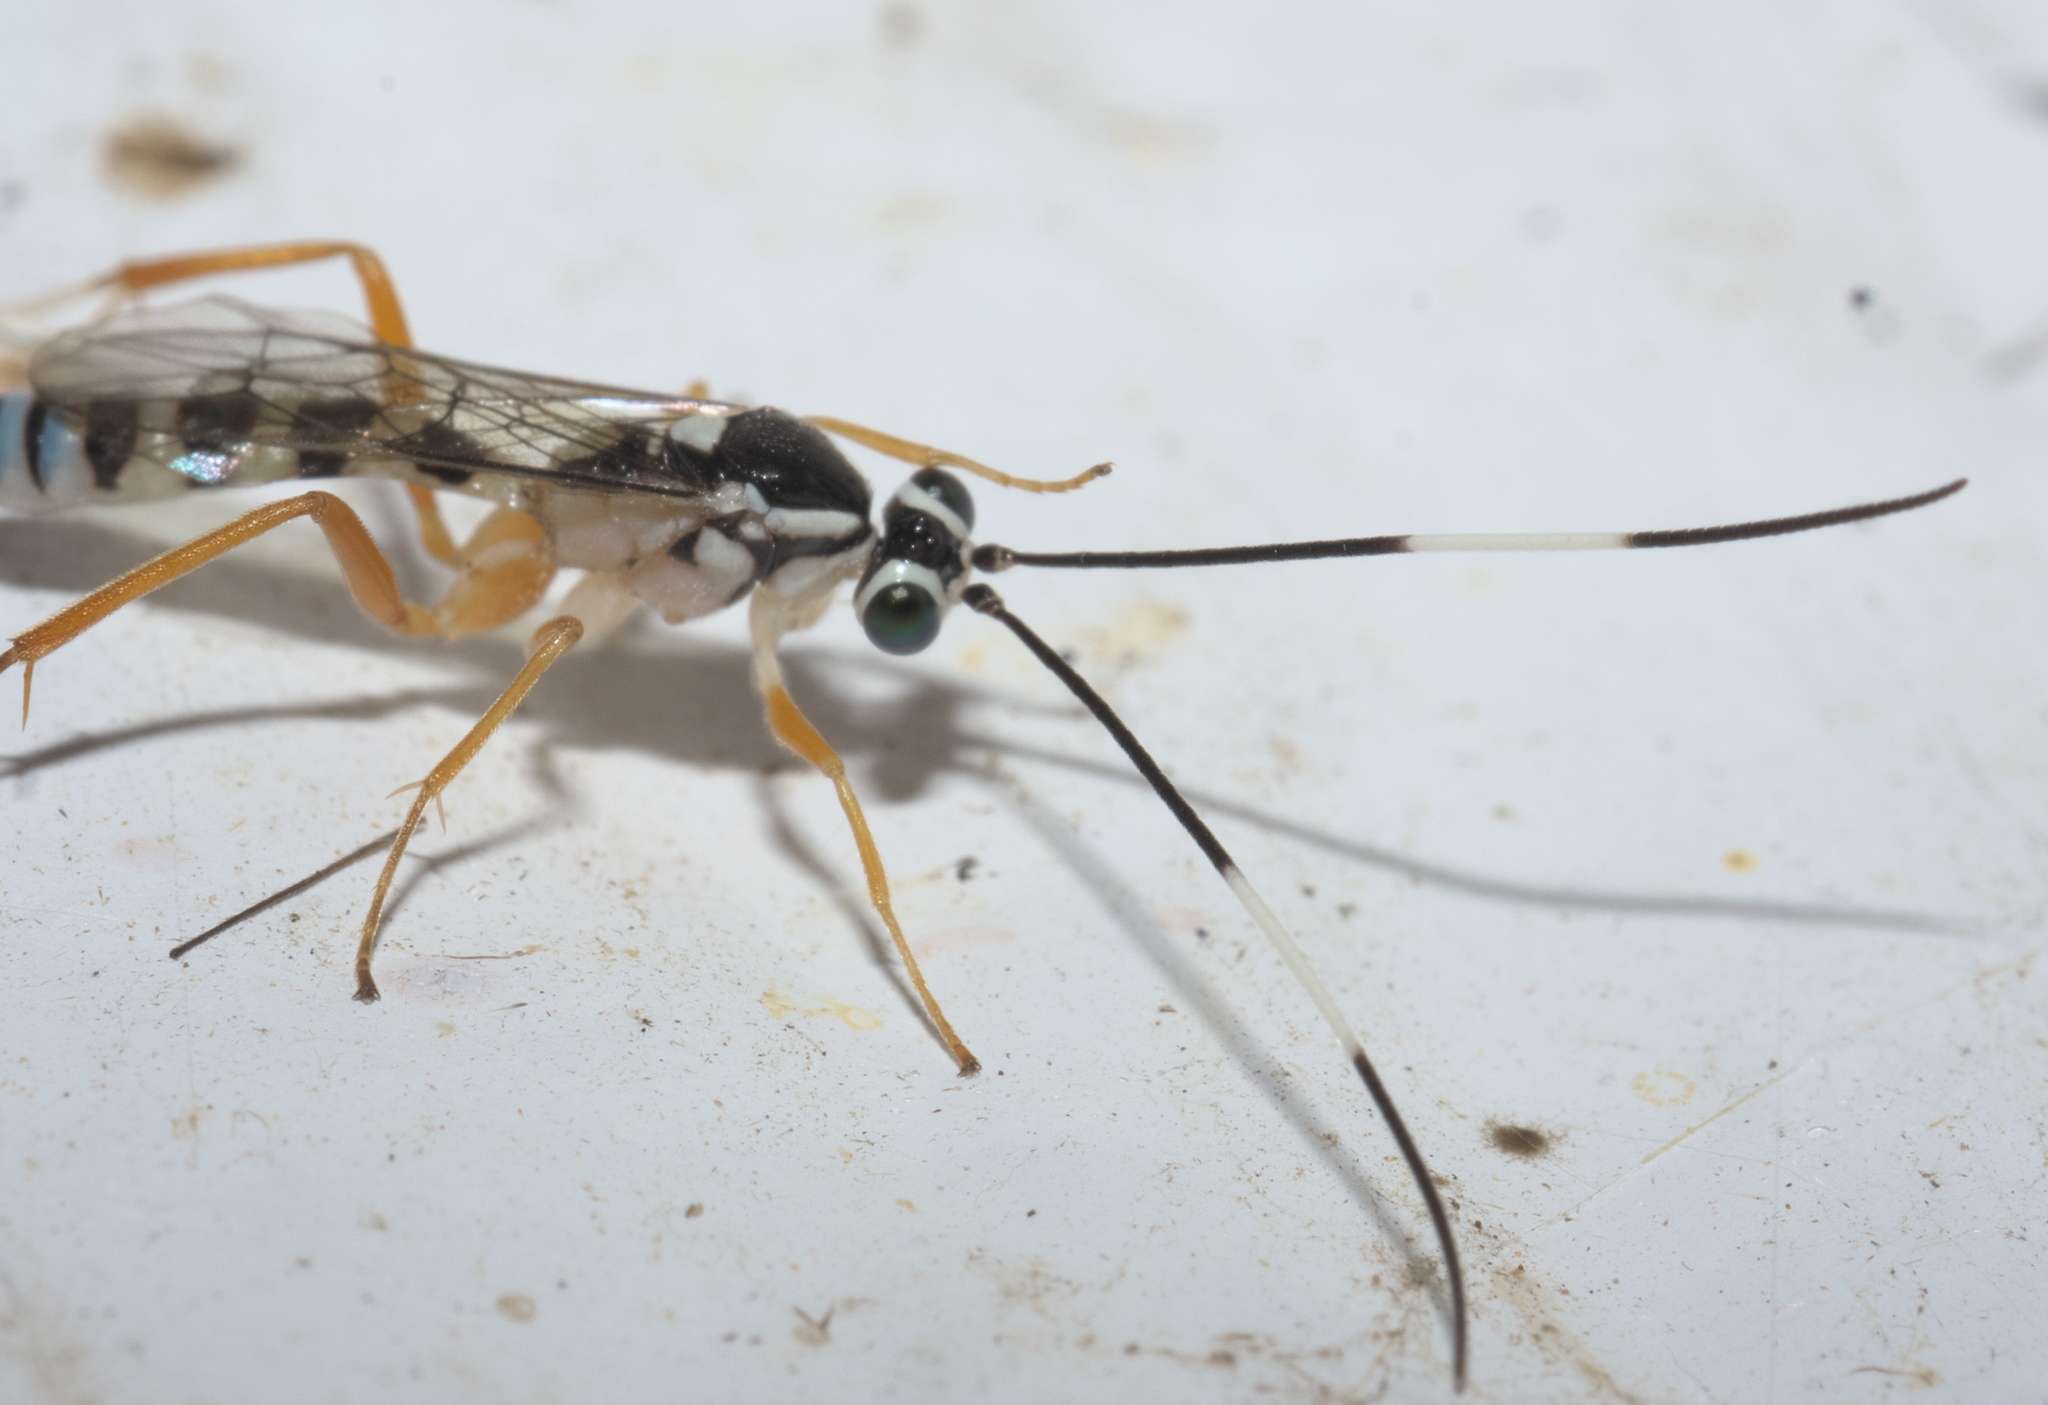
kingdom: Animalia
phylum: Arthropoda
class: Insecta
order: Hymenoptera
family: Ichneumonidae
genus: Sphelodon
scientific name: Sphelodon phoxopteridis
